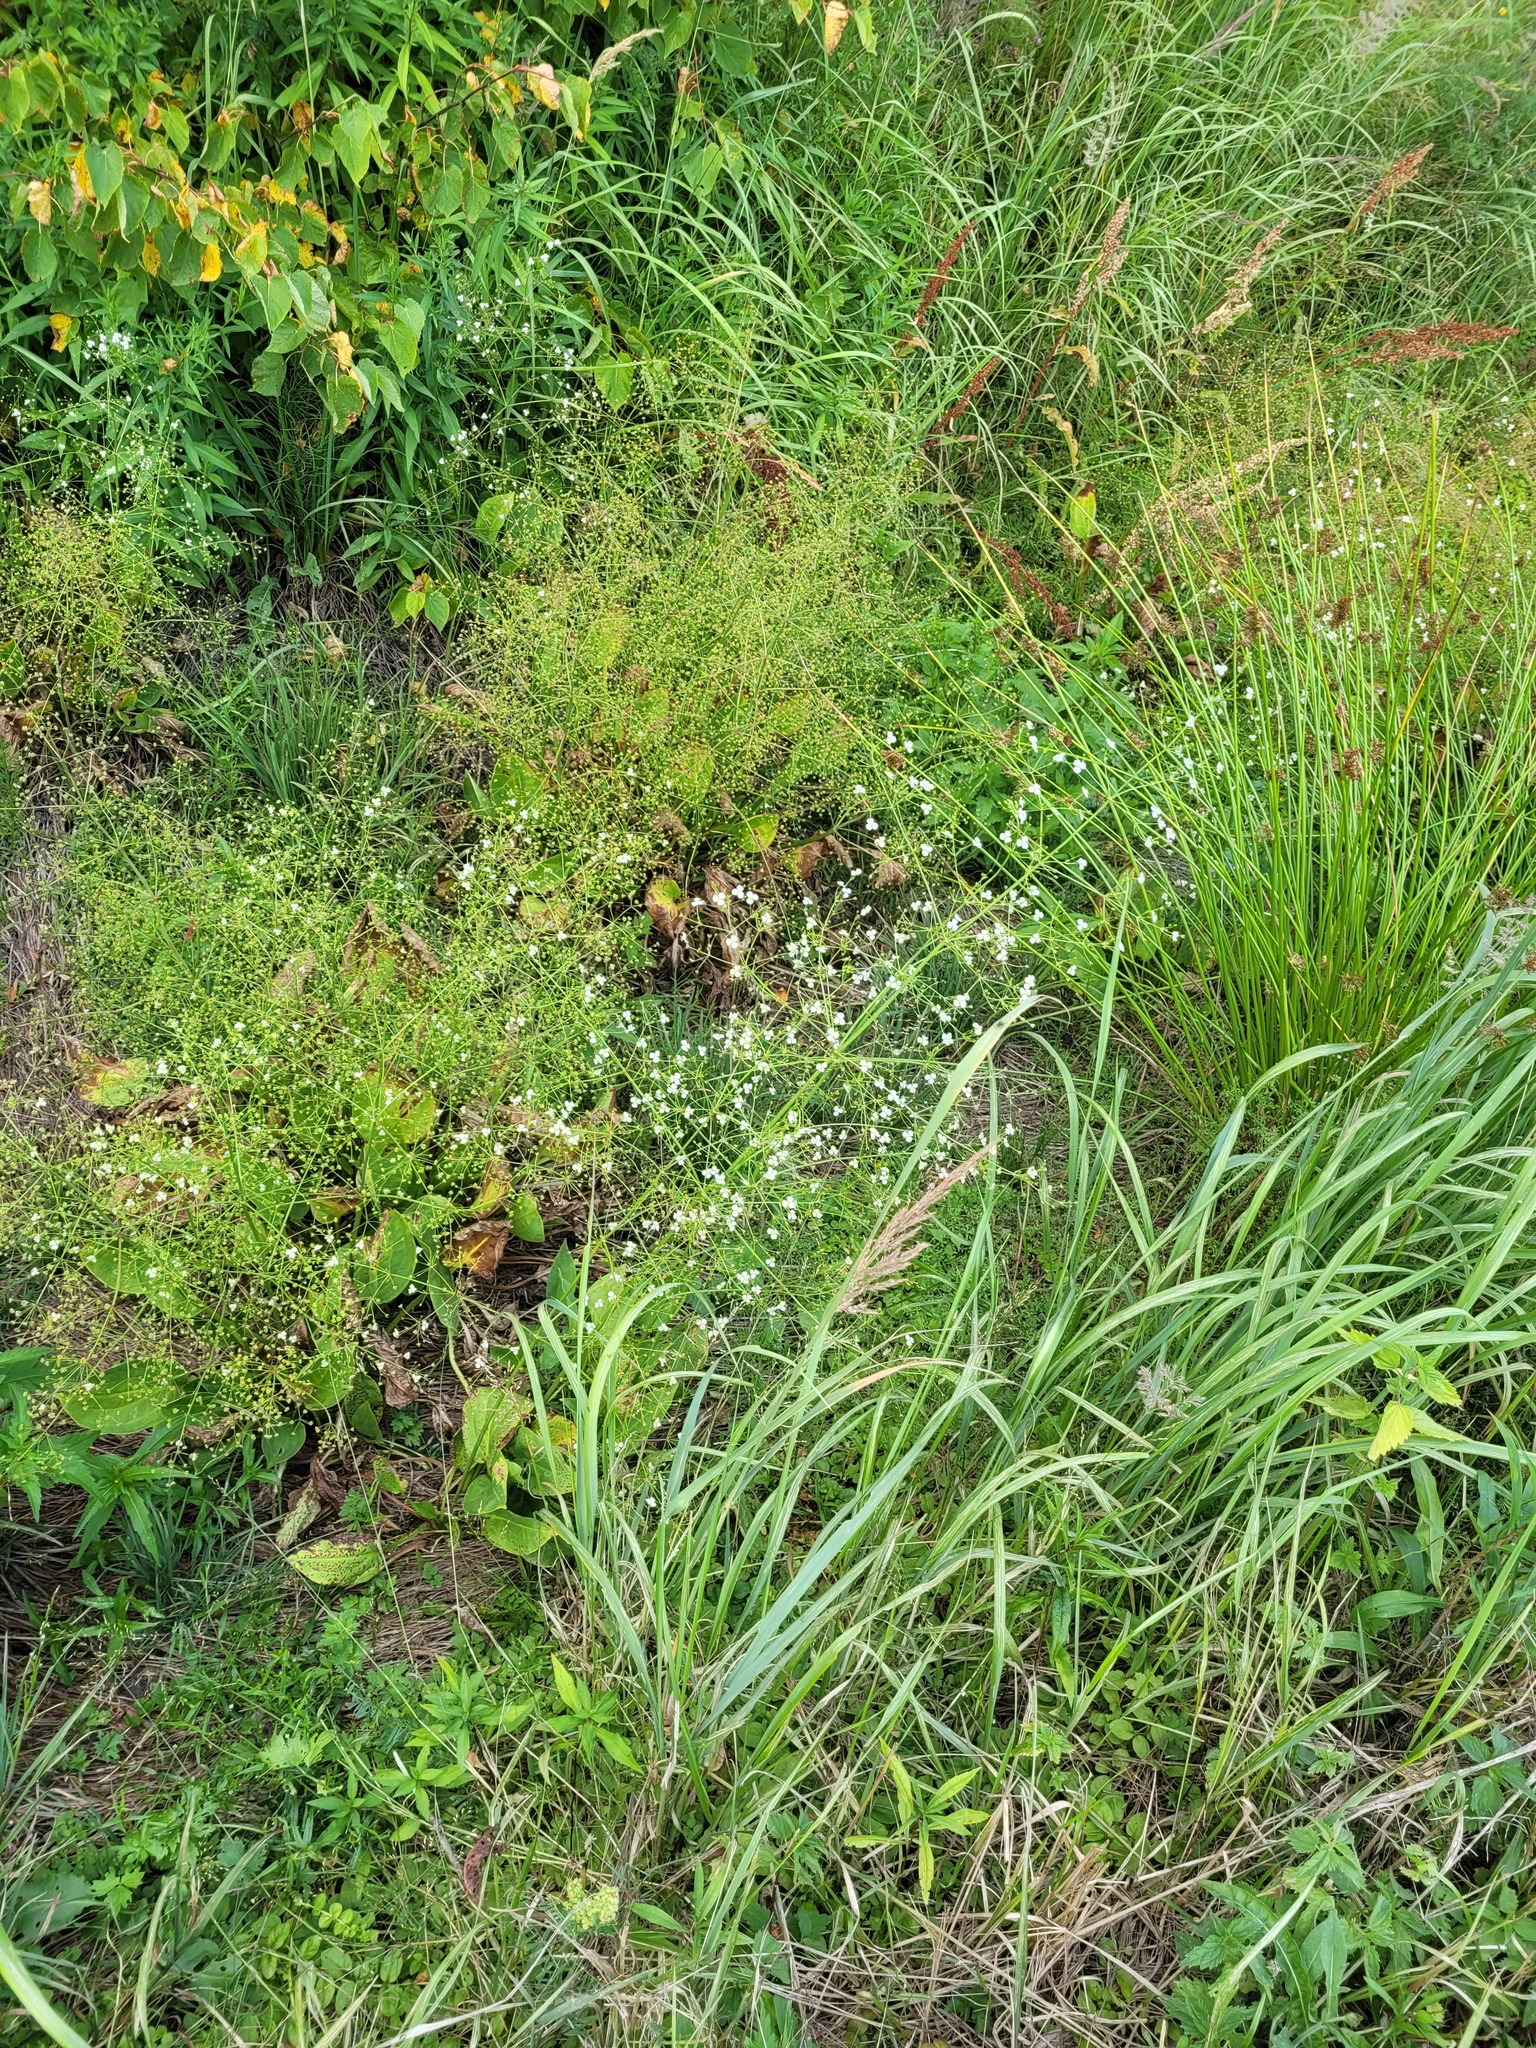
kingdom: Plantae
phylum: Tracheophyta
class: Liliopsida
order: Alismatales
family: Alismataceae
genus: Alisma
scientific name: Alisma plantago-aquatica
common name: Water-plantain
